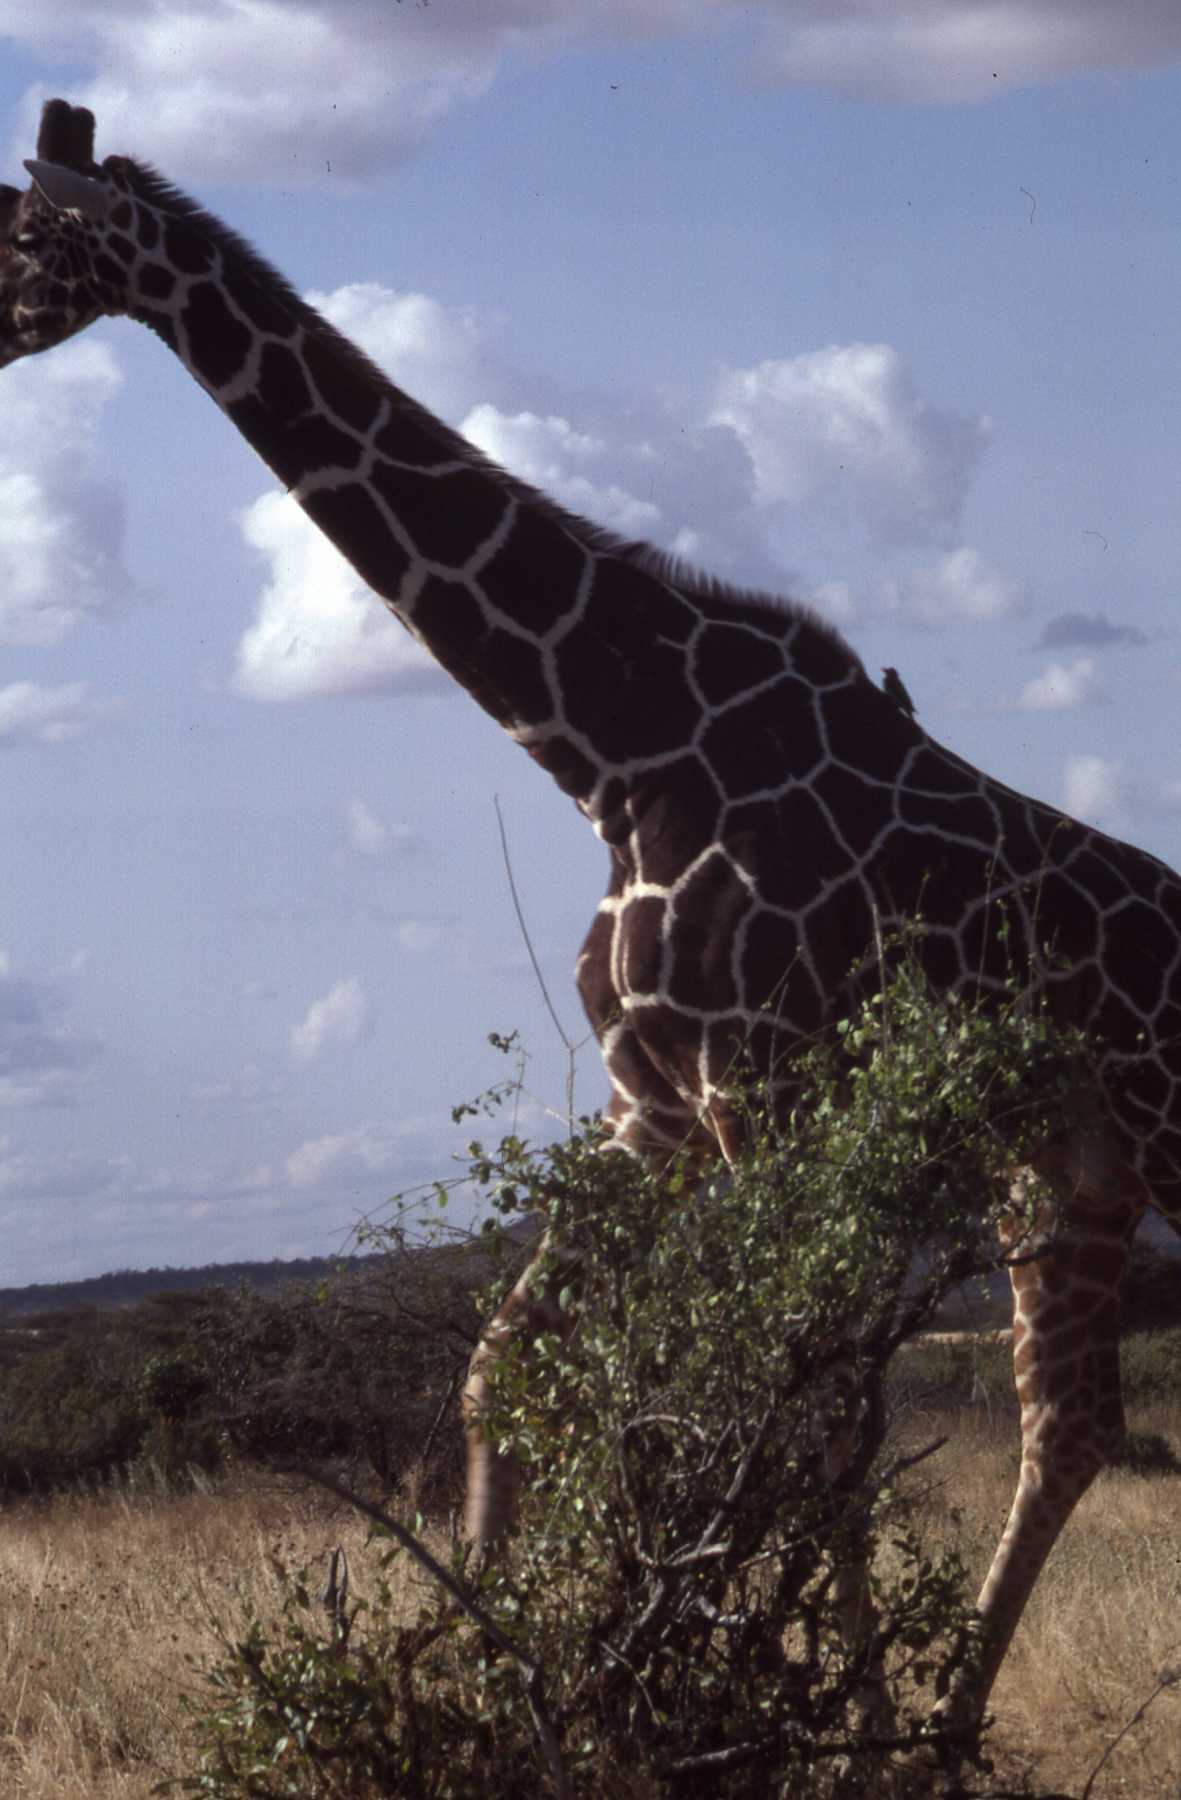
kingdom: Animalia
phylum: Chordata
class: Mammalia
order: Artiodactyla
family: Giraffidae
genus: Giraffa
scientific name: Giraffa reticulata
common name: Reticulated giraffe
